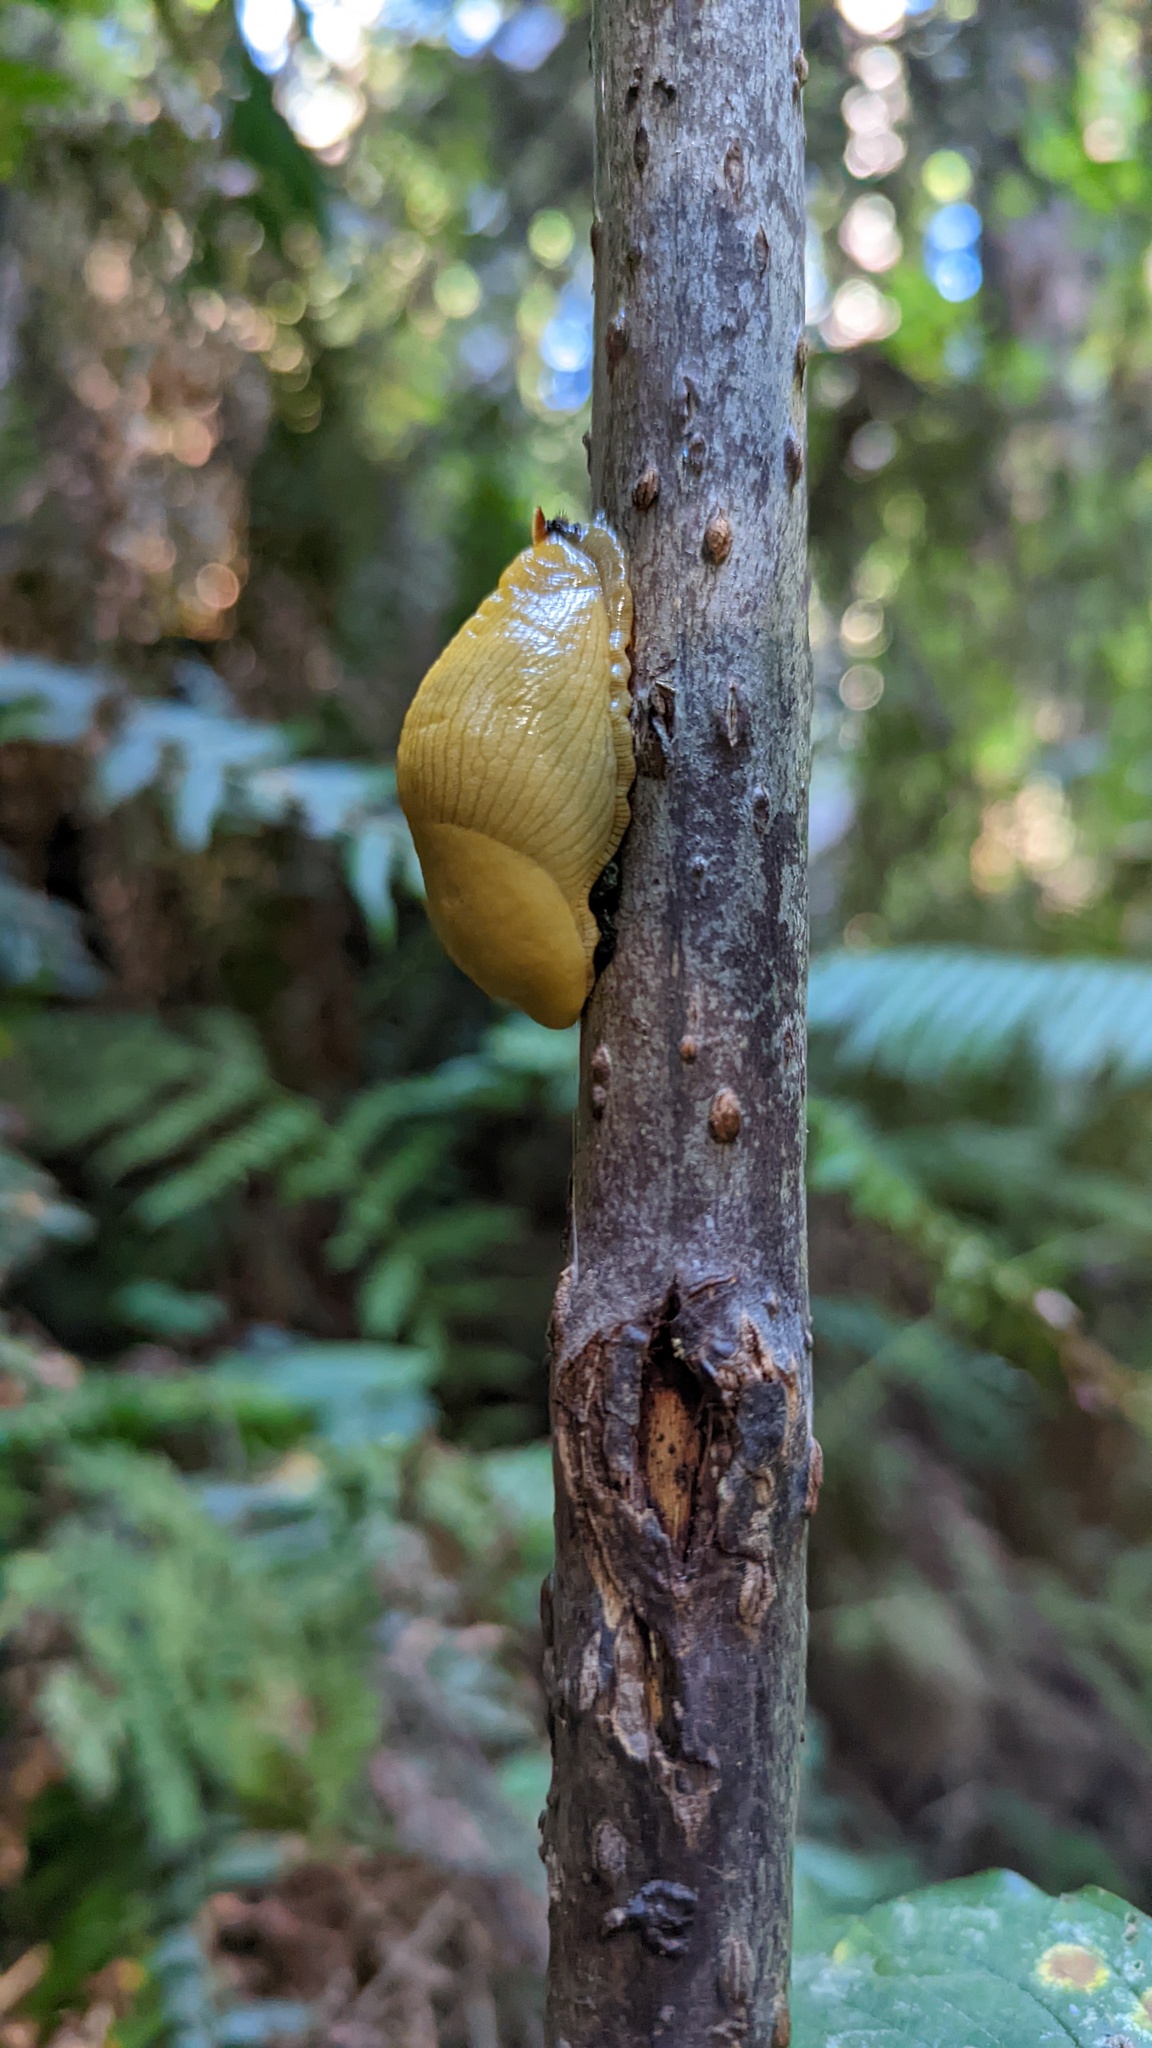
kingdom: Animalia
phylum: Mollusca
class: Gastropoda
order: Stylommatophora
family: Ariolimacidae
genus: Ariolimax
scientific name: Ariolimax columbianus
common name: Pacific banana slug
